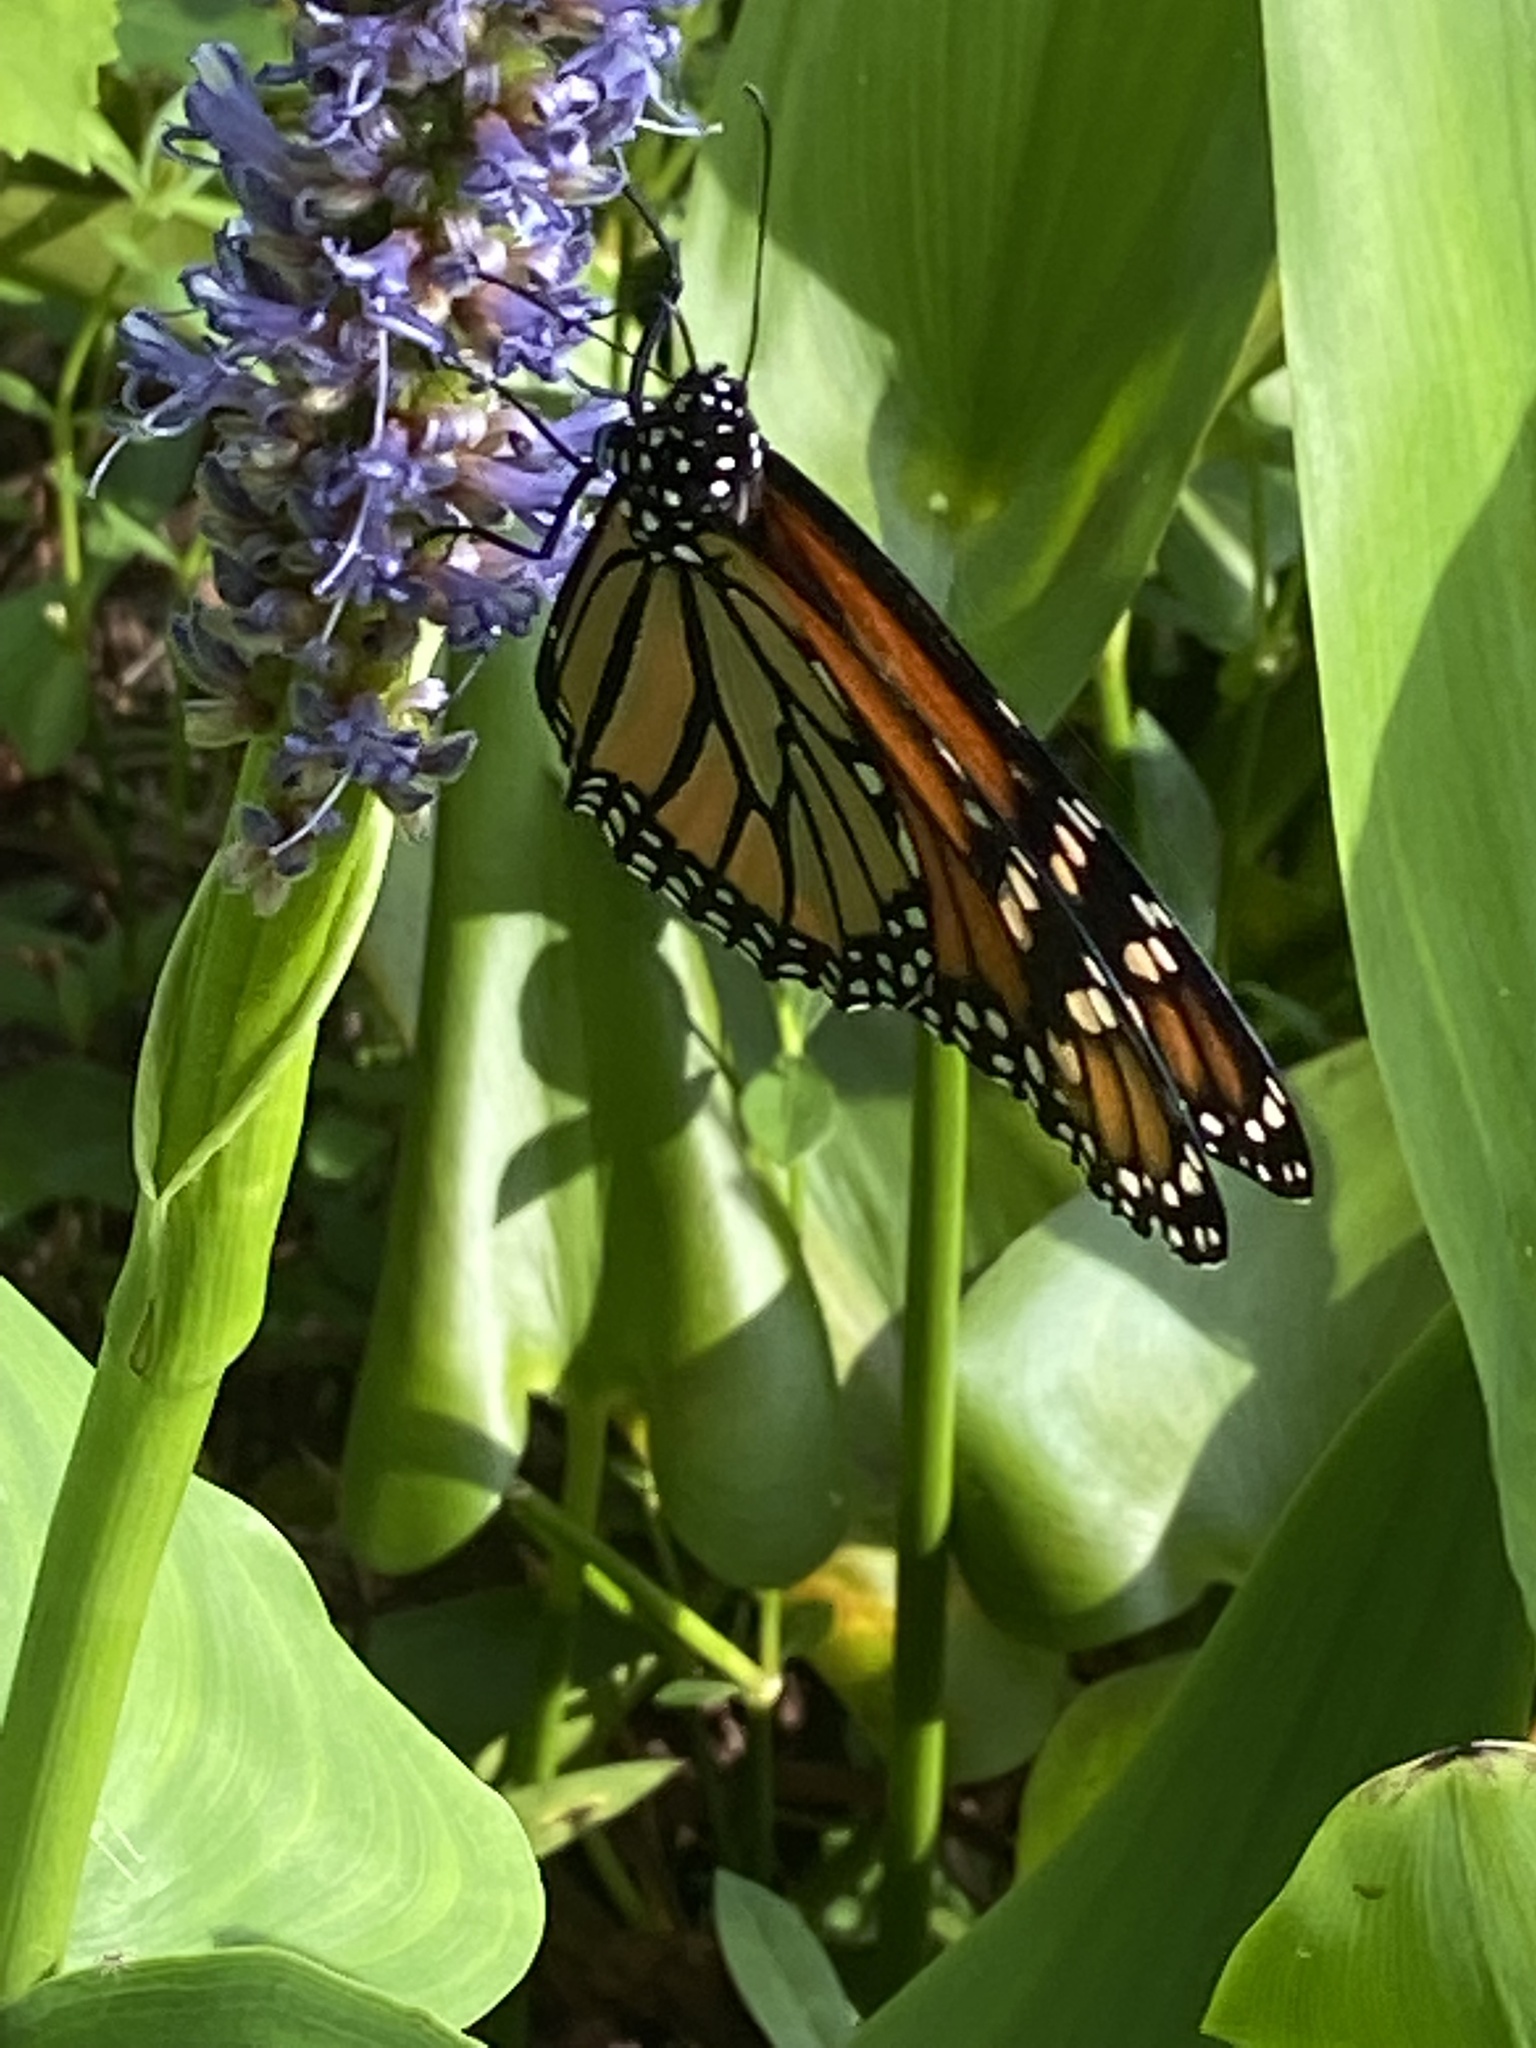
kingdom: Animalia
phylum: Arthropoda
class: Insecta
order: Lepidoptera
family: Nymphalidae
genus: Danaus
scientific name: Danaus plexippus
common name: Monarch
